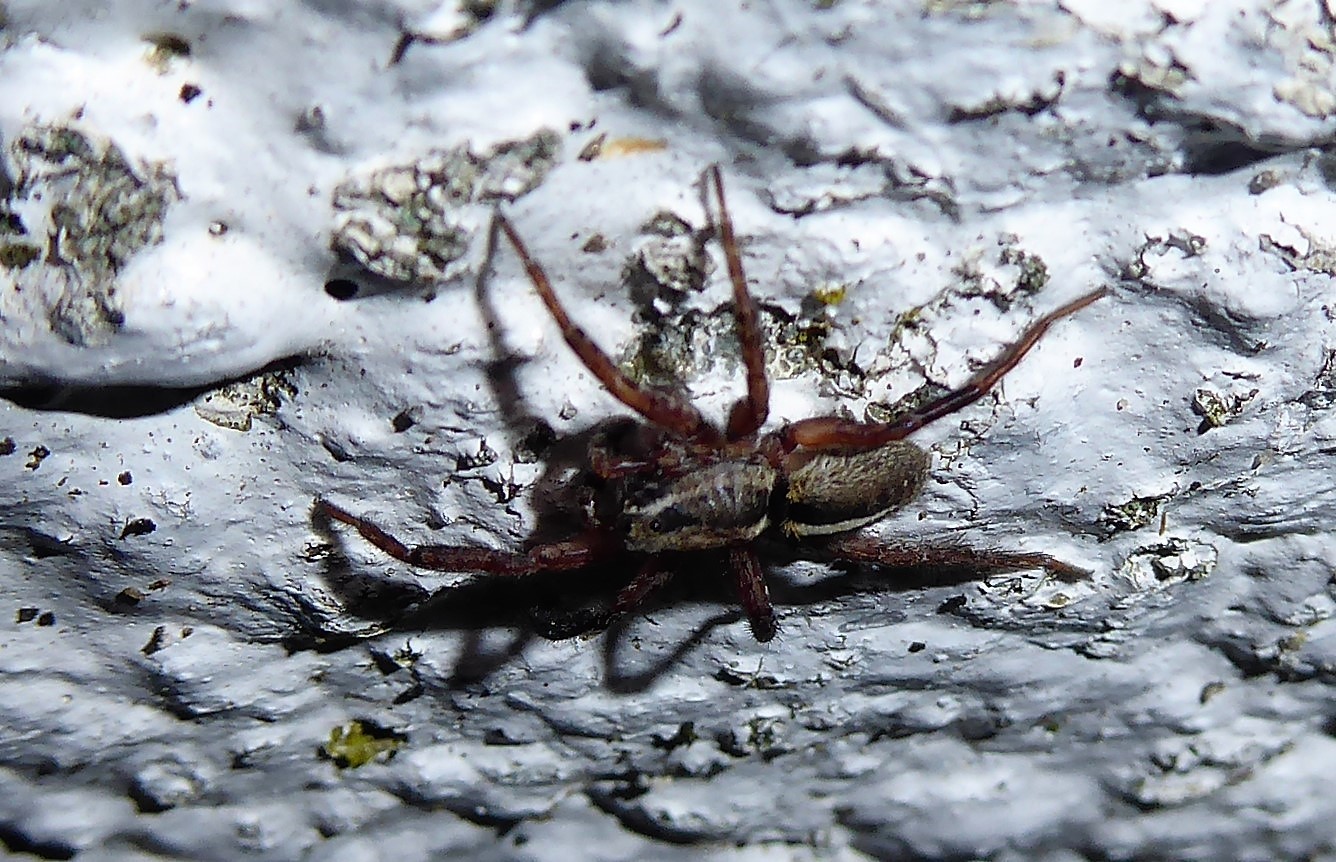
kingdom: Animalia
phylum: Arthropoda
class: Arachnida
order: Araneae
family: Lycosidae
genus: Anoteropsis
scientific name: Anoteropsis hilaris
